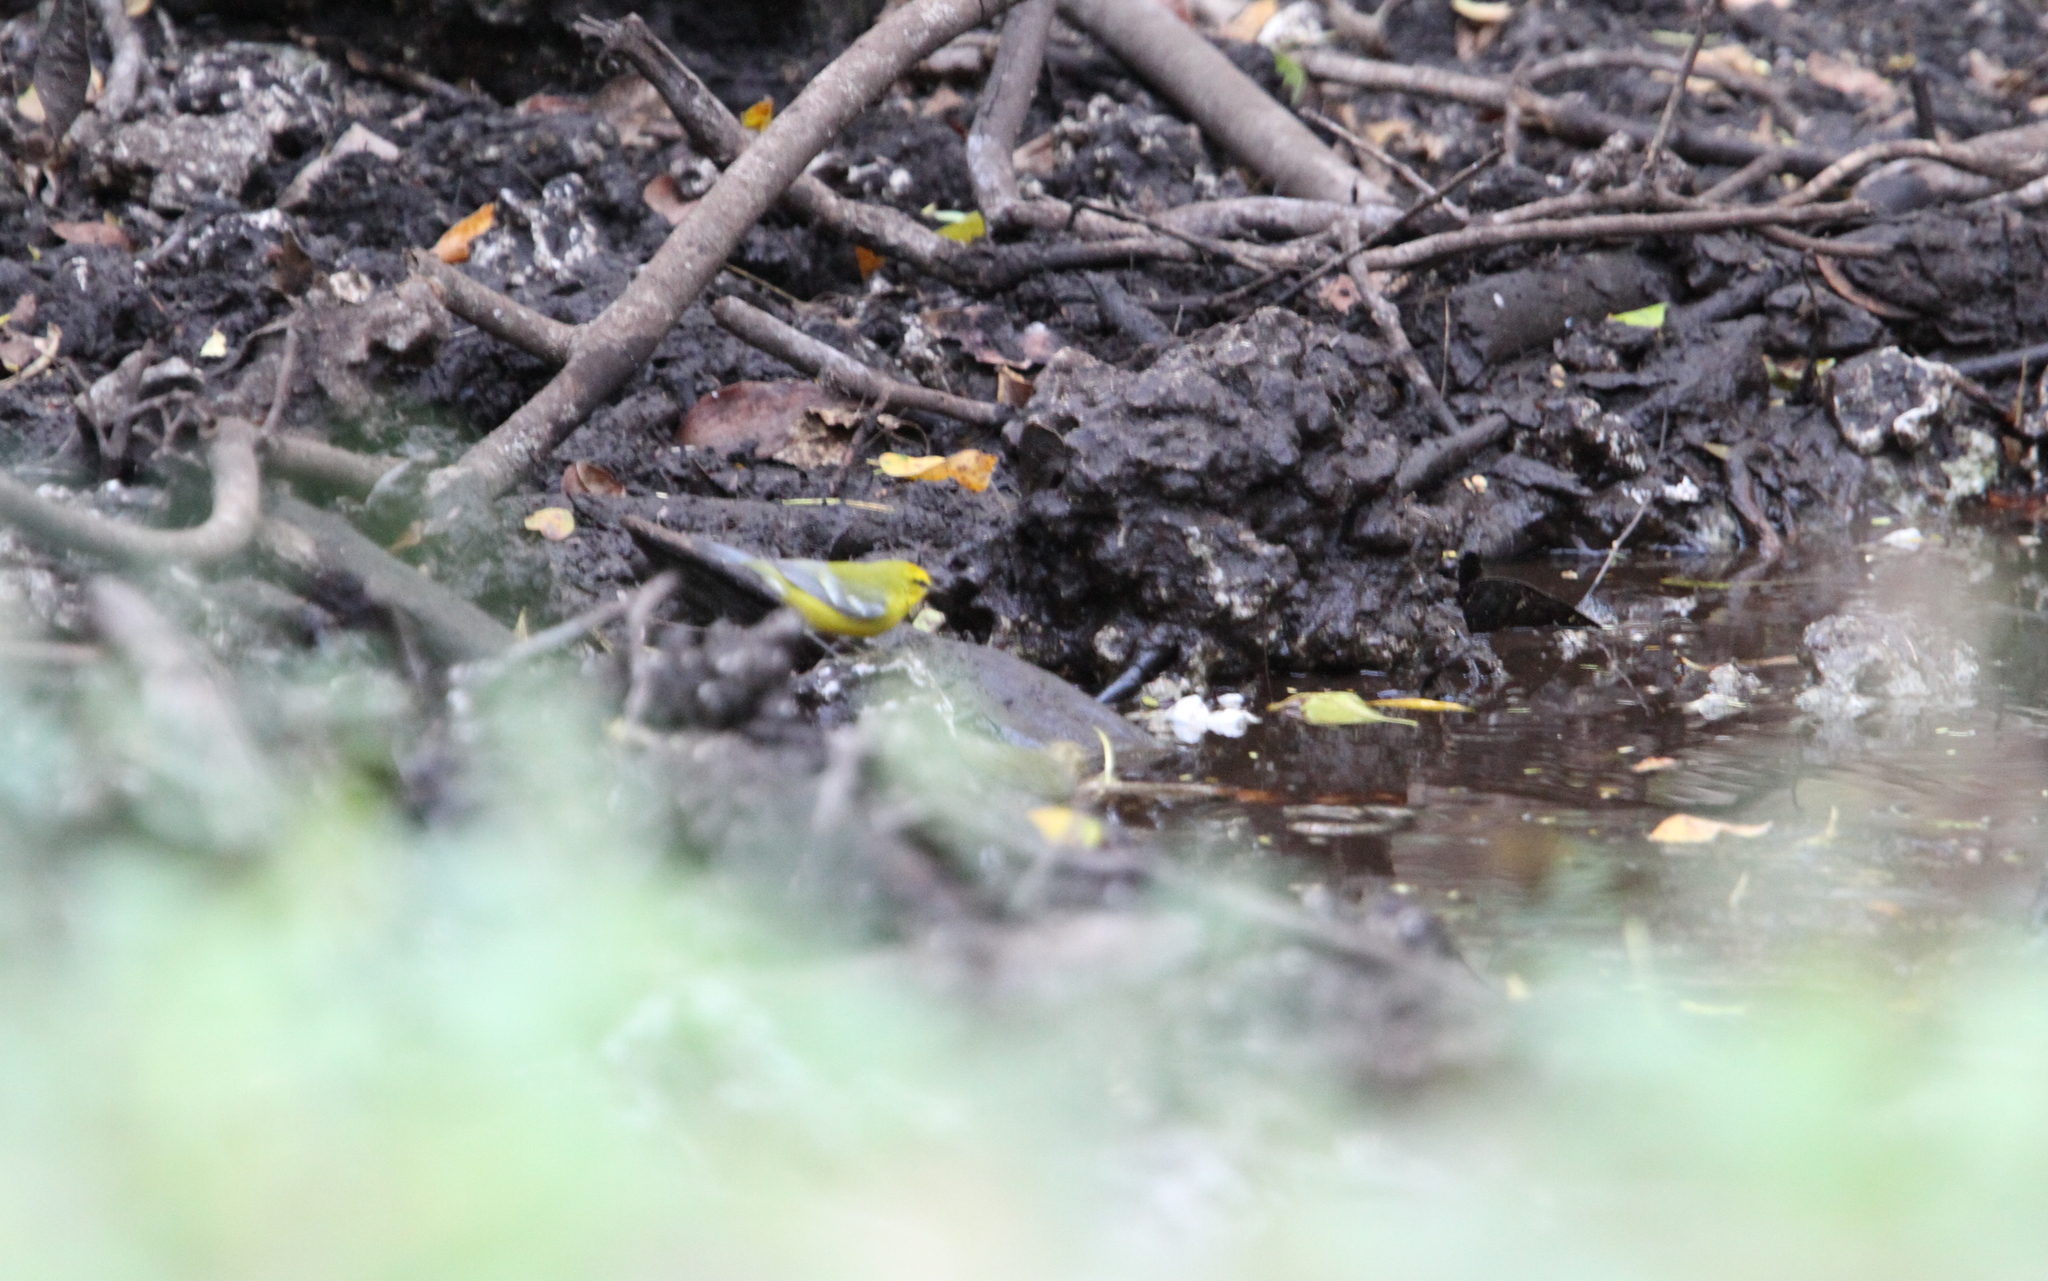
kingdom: Animalia
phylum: Chordata
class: Aves
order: Passeriformes
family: Parulidae
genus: Vermivora
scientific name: Vermivora cyanoptera
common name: Blue-winged warbler
